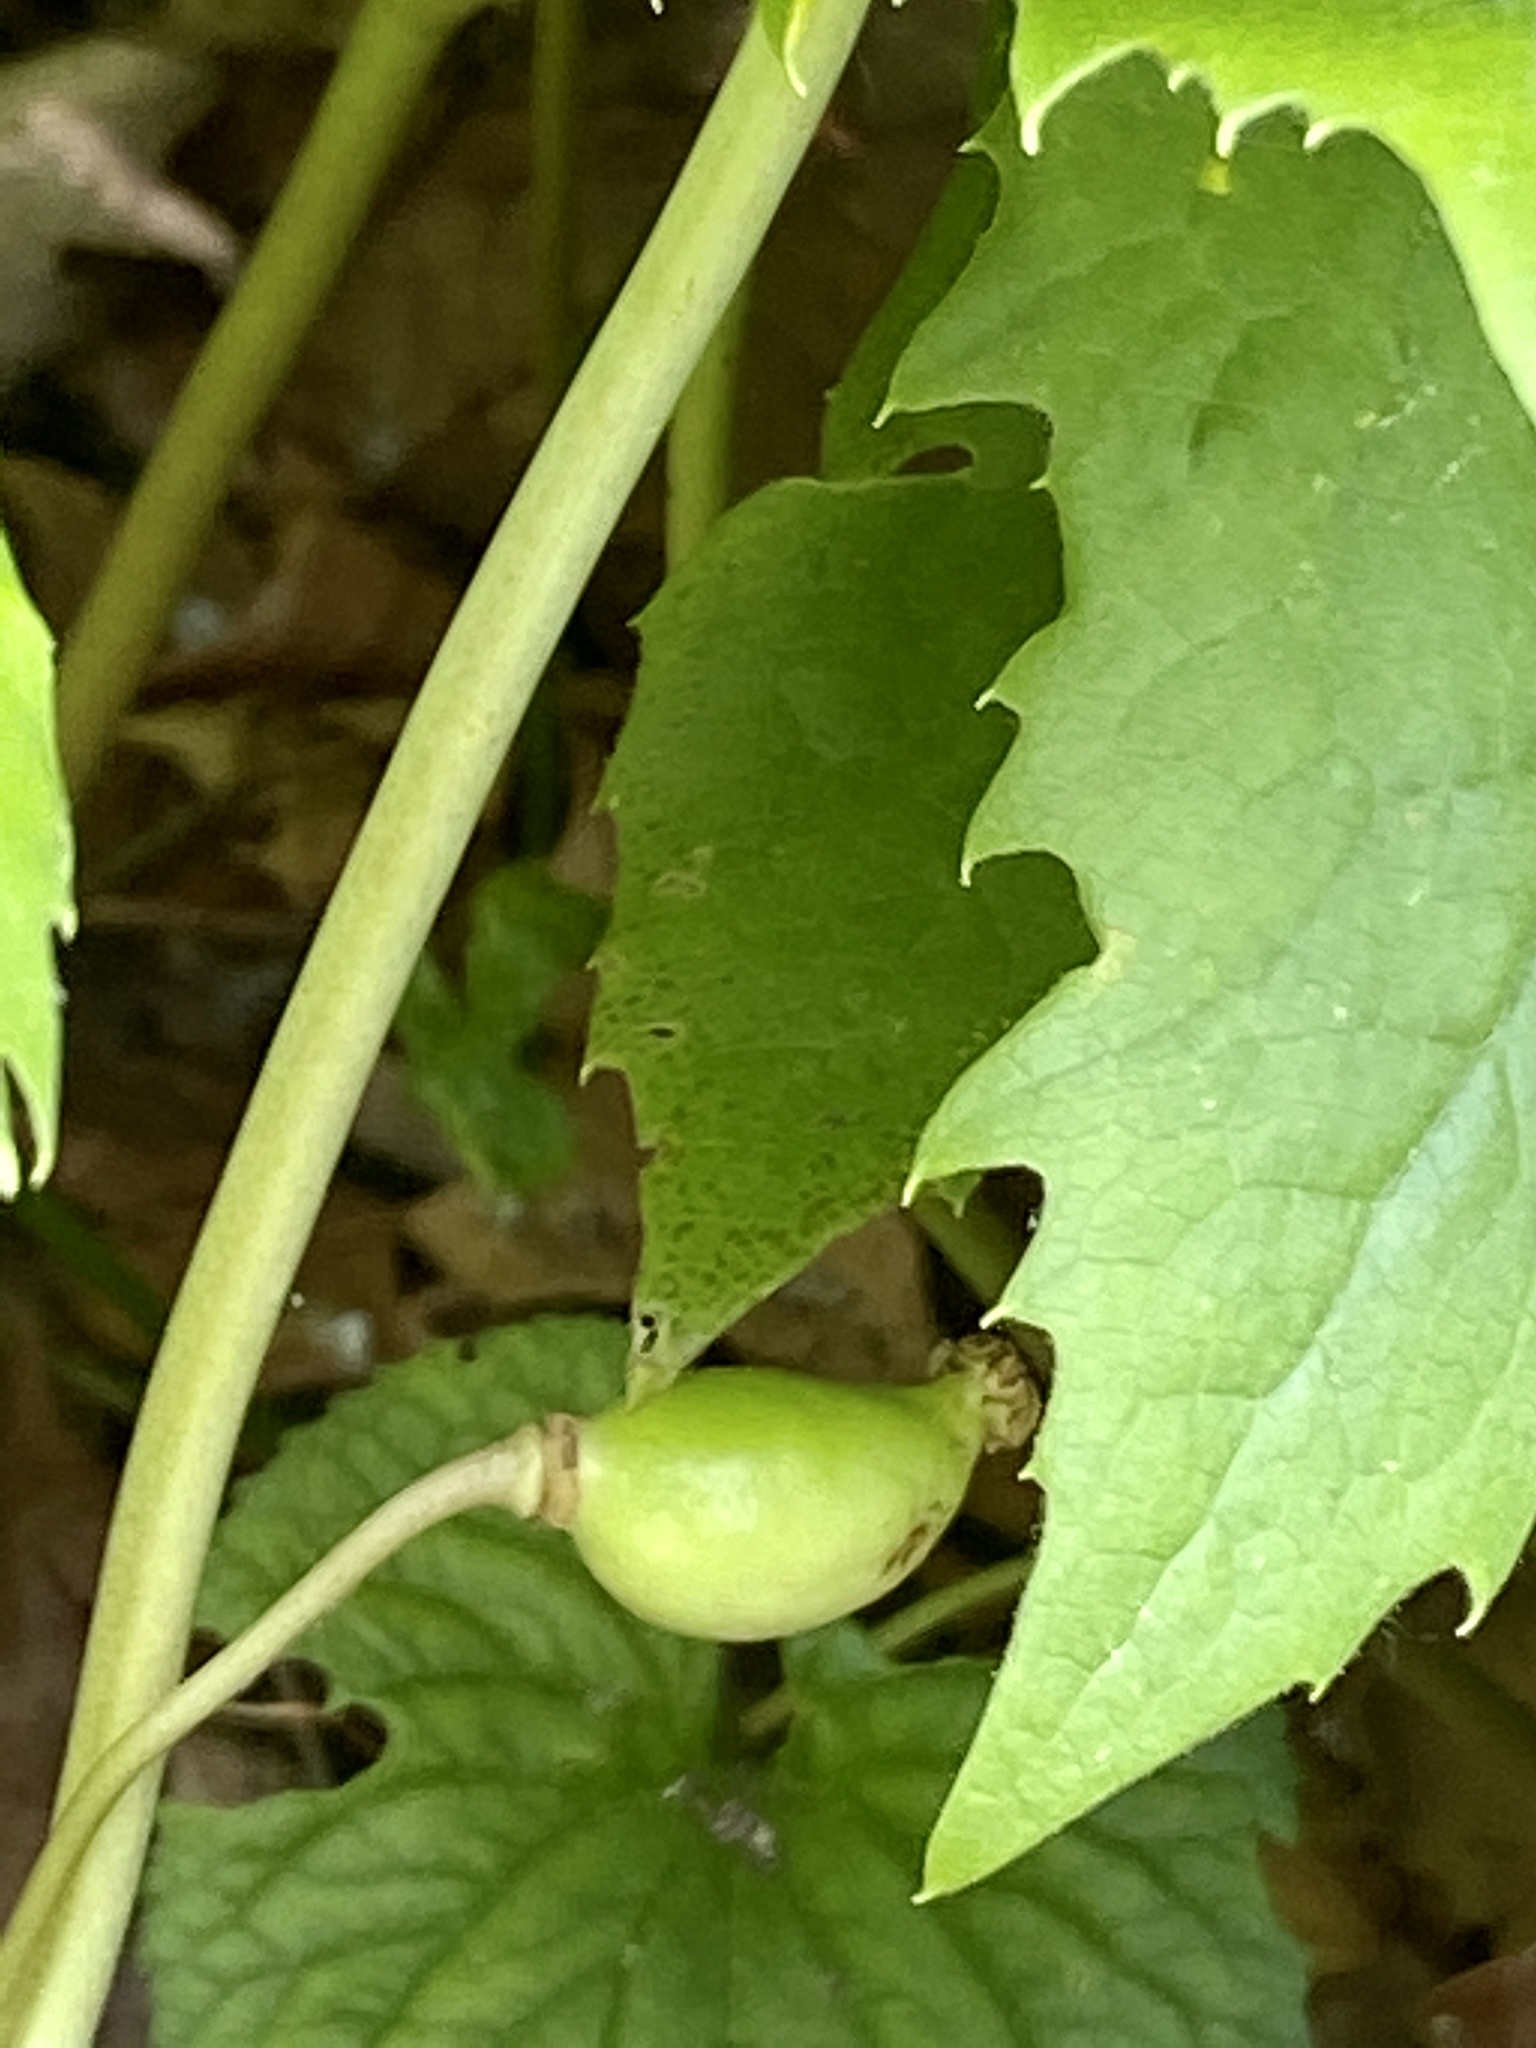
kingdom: Plantae
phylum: Tracheophyta
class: Magnoliopsida
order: Ranunculales
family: Berberidaceae
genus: Podophyllum
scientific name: Podophyllum peltatum
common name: Wild mandrake
